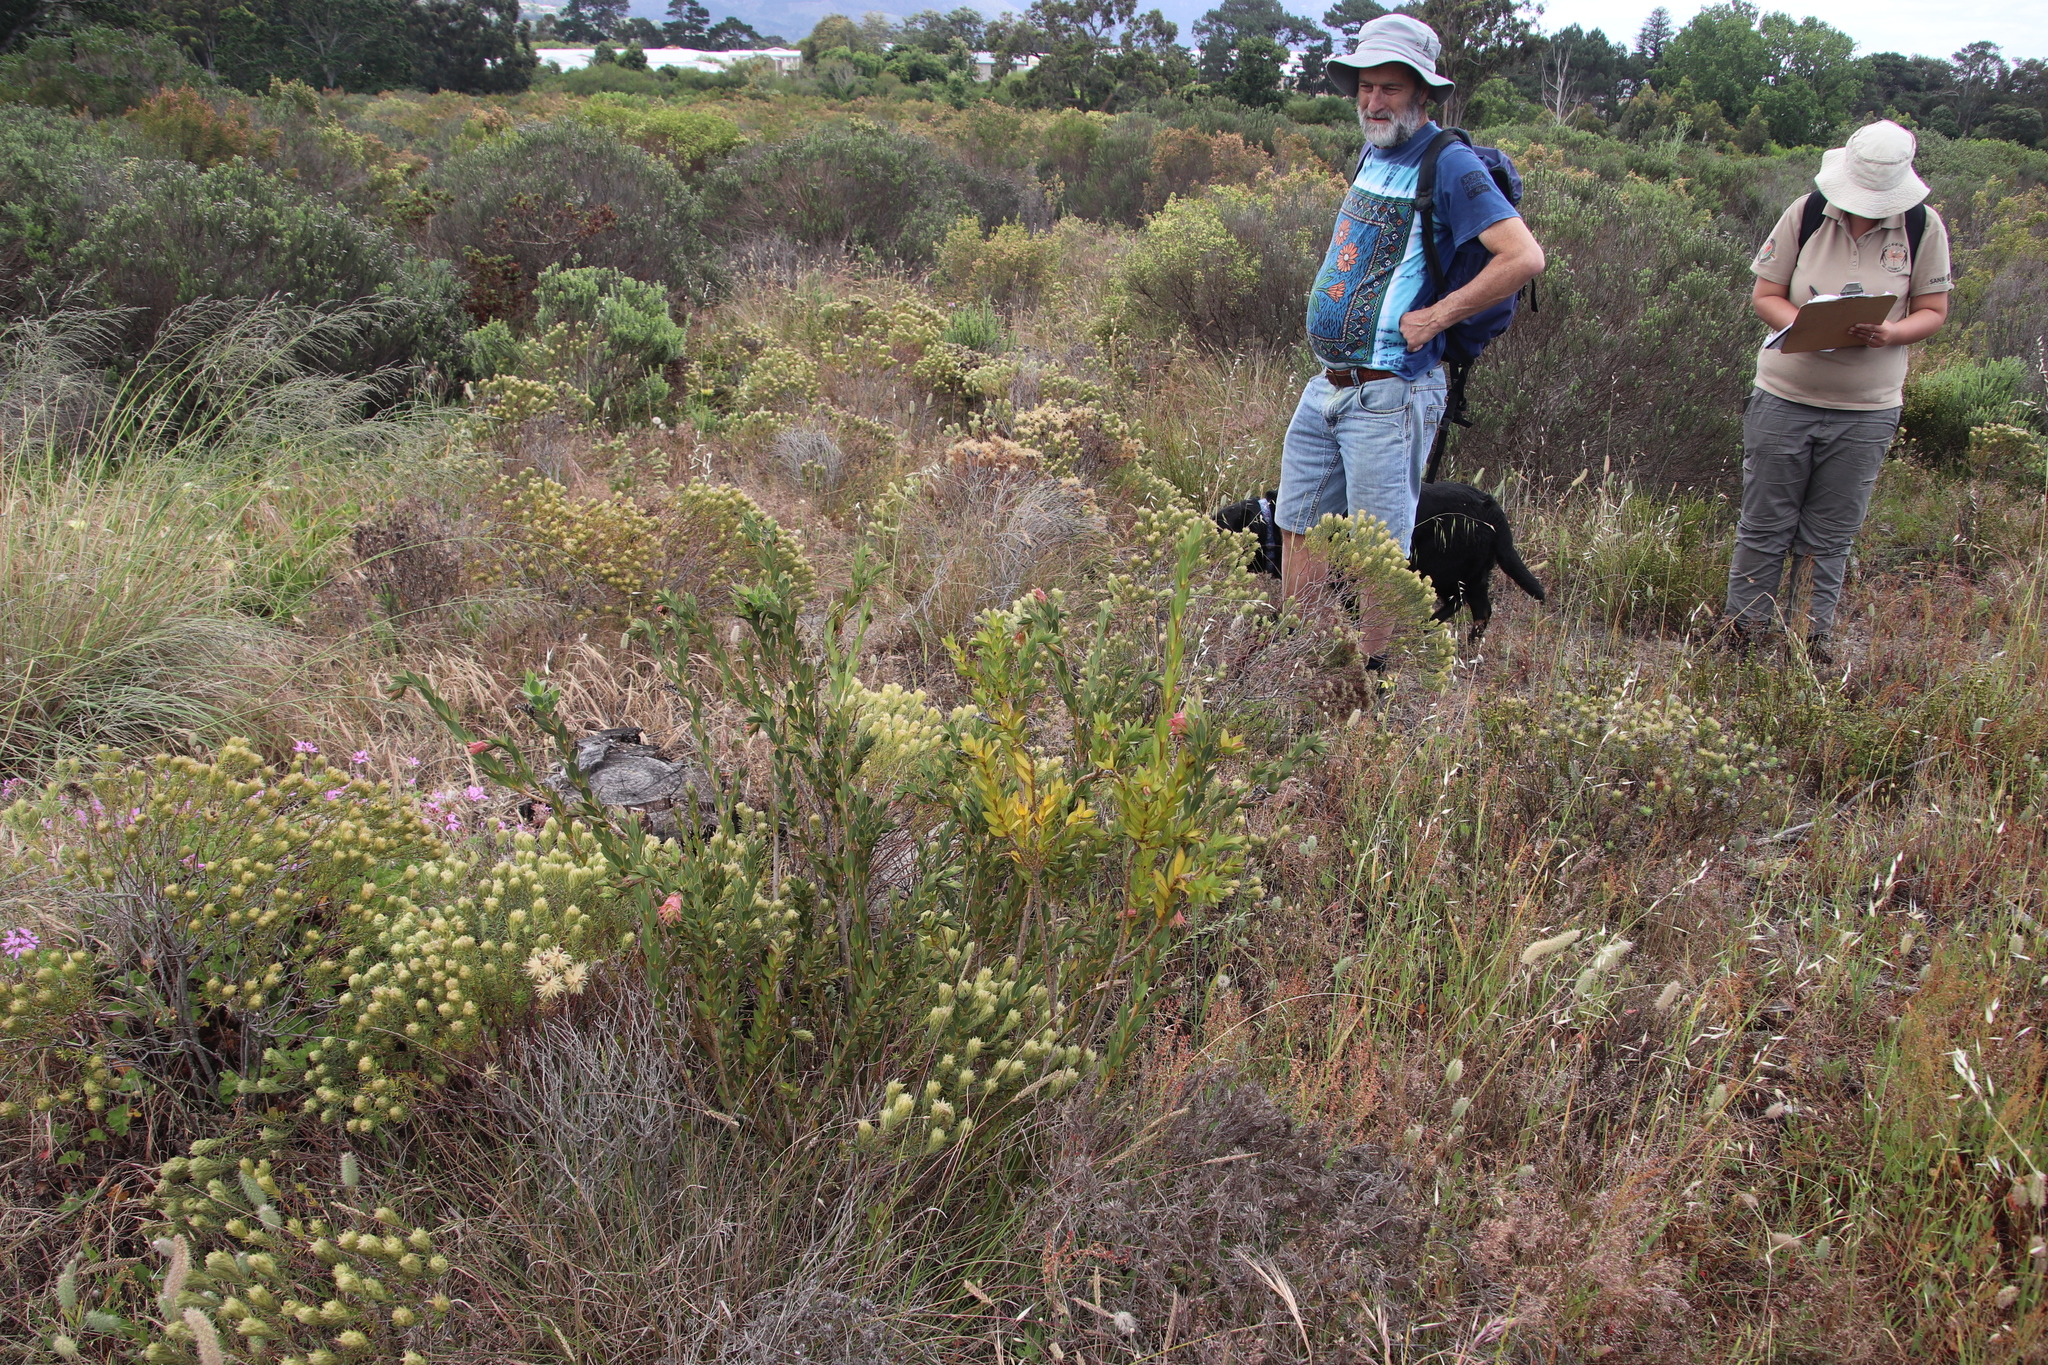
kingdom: Plantae
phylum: Tracheophyta
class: Magnoliopsida
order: Fabales
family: Fabaceae
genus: Liparia
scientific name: Liparia splendens
